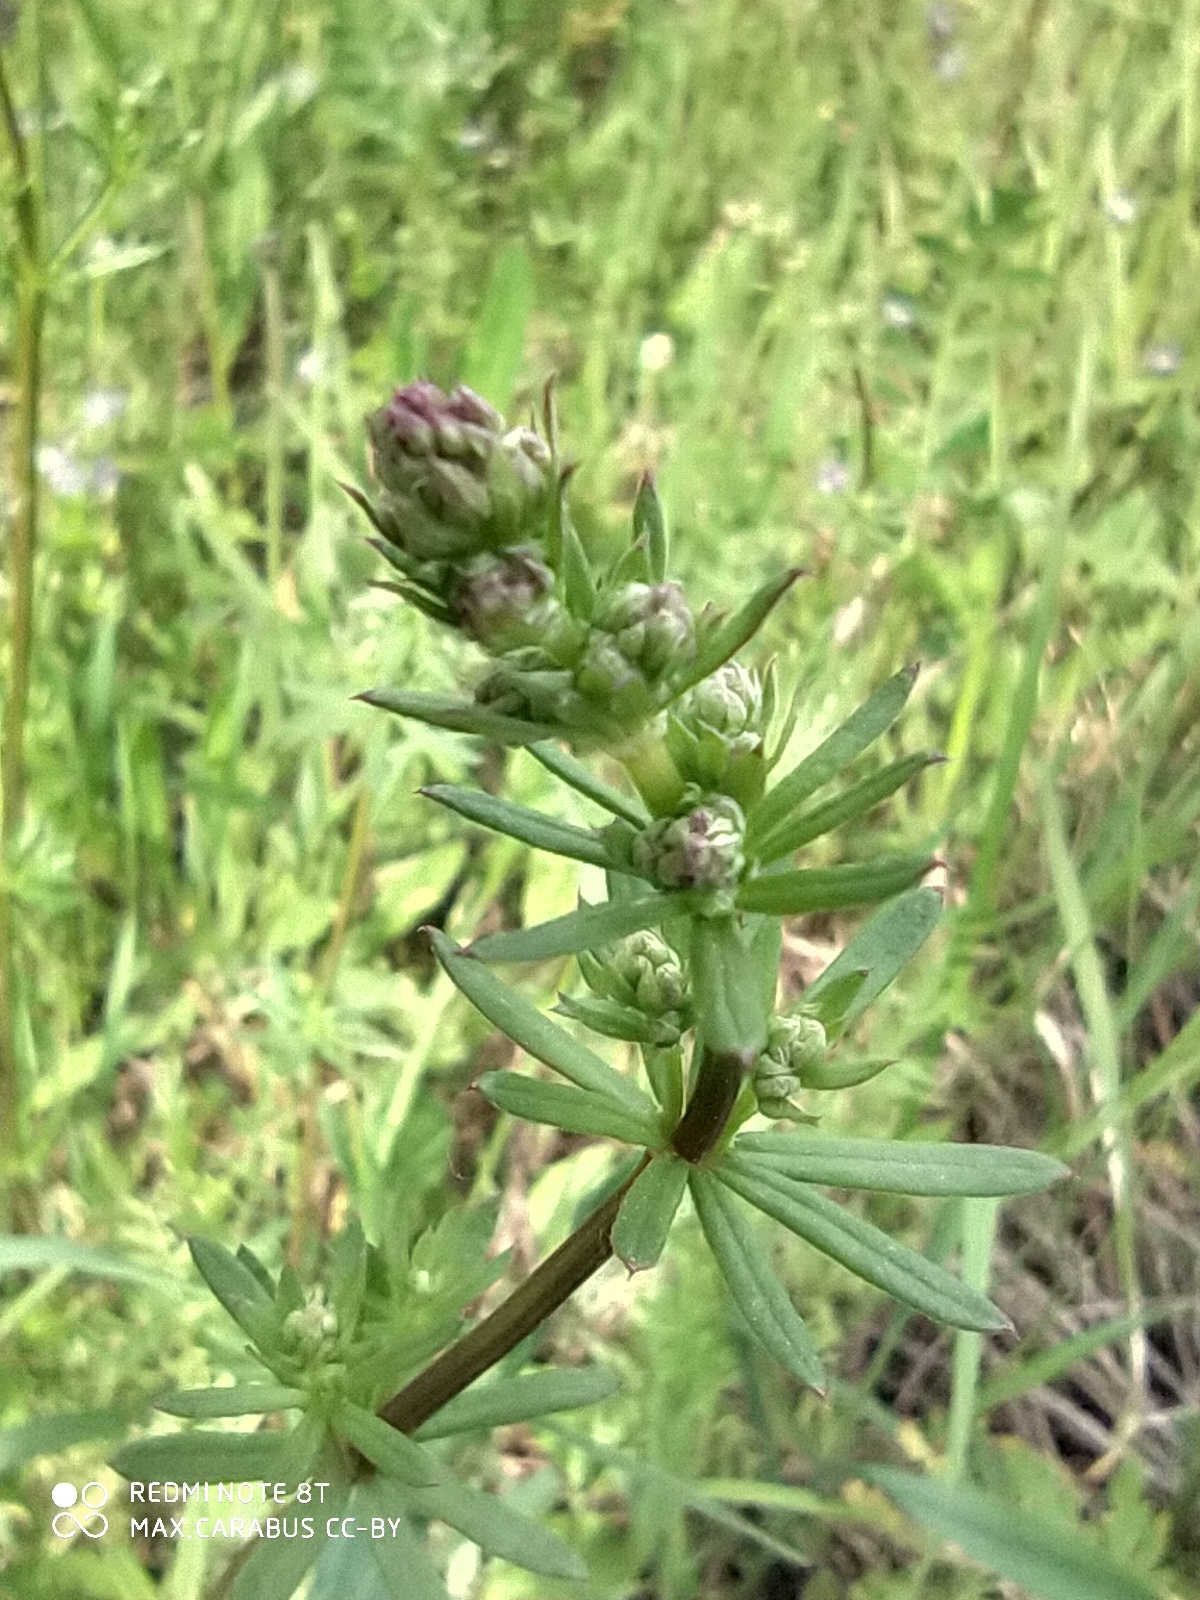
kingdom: Plantae
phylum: Tracheophyta
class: Magnoliopsida
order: Gentianales
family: Rubiaceae
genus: Galium
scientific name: Galium mollugo
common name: Hedge bedstraw
